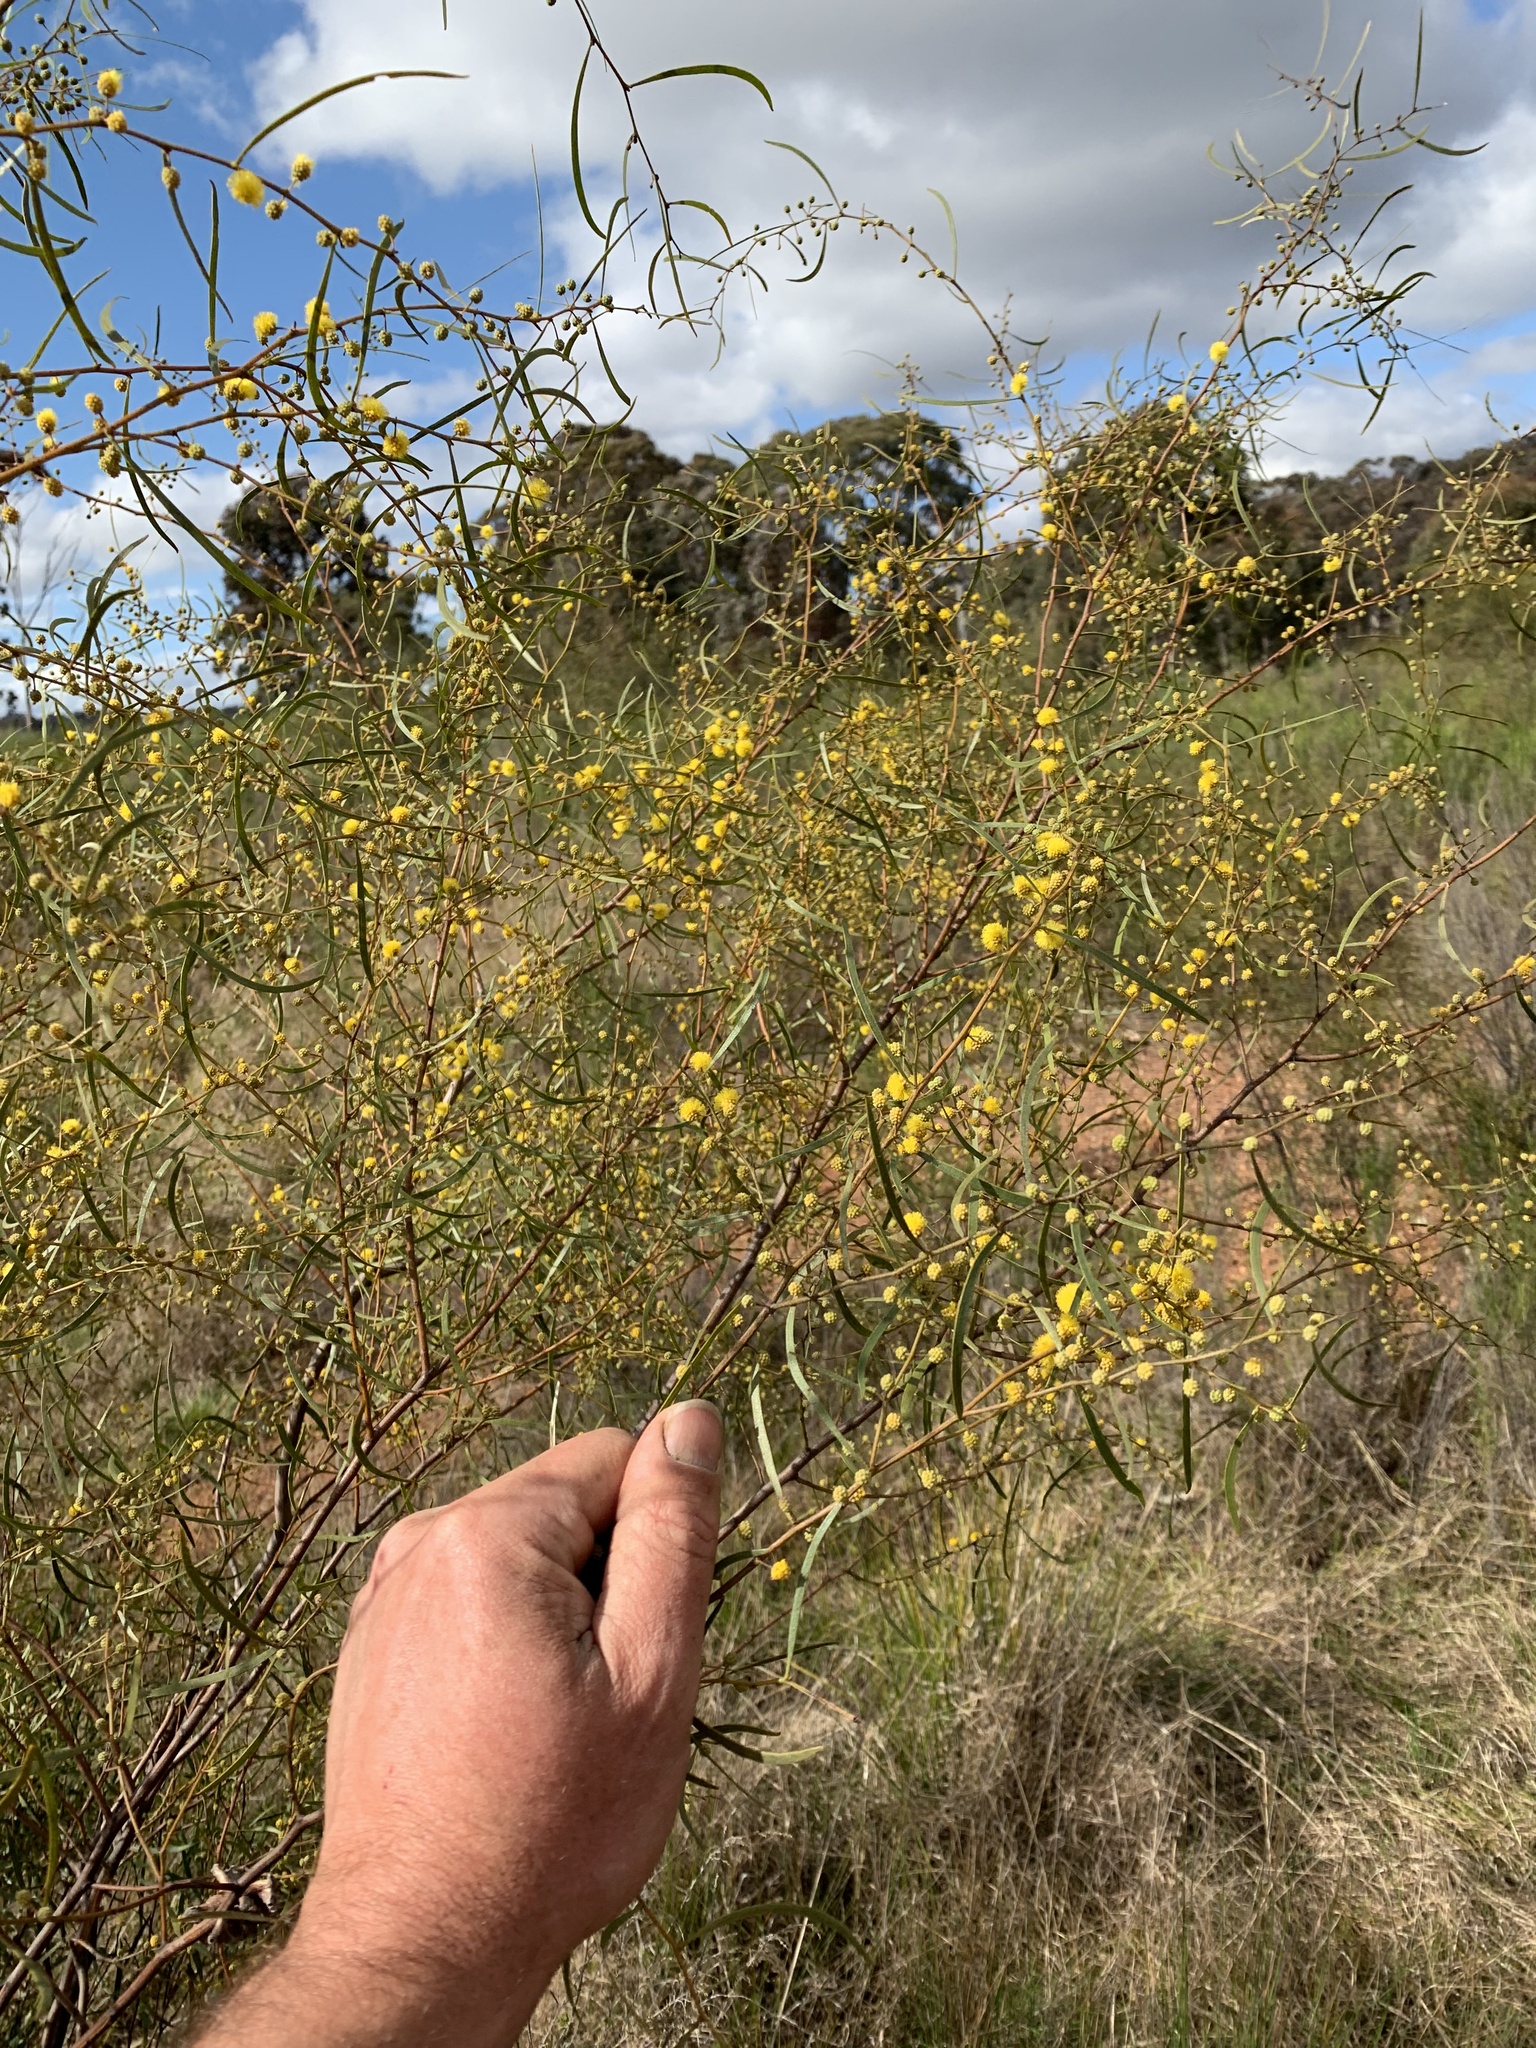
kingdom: Plantae
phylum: Tracheophyta
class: Magnoliopsida
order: Fabales
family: Fabaceae
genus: Acacia
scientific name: Acacia verniciflua
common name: Varnish wattle
